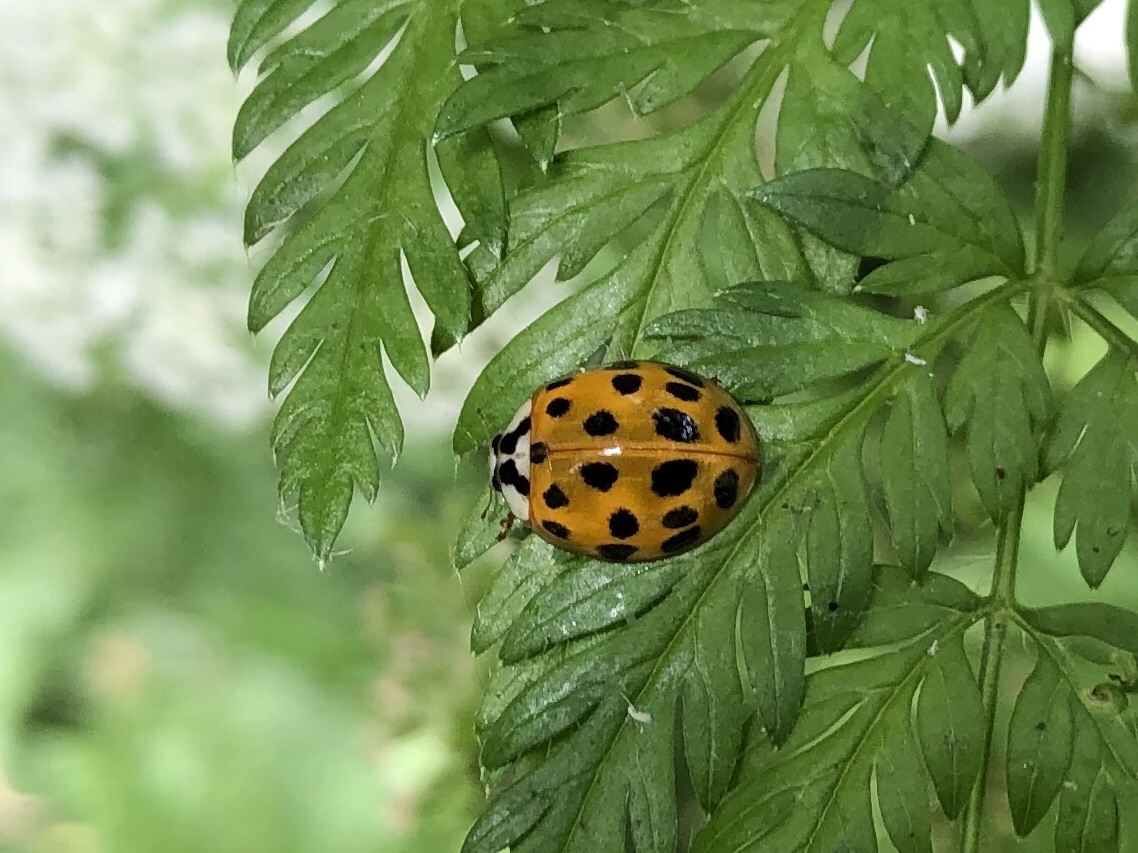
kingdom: Animalia
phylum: Arthropoda
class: Insecta
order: Coleoptera
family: Coccinellidae
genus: Harmonia
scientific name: Harmonia axyridis
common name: Harlequin ladybird
